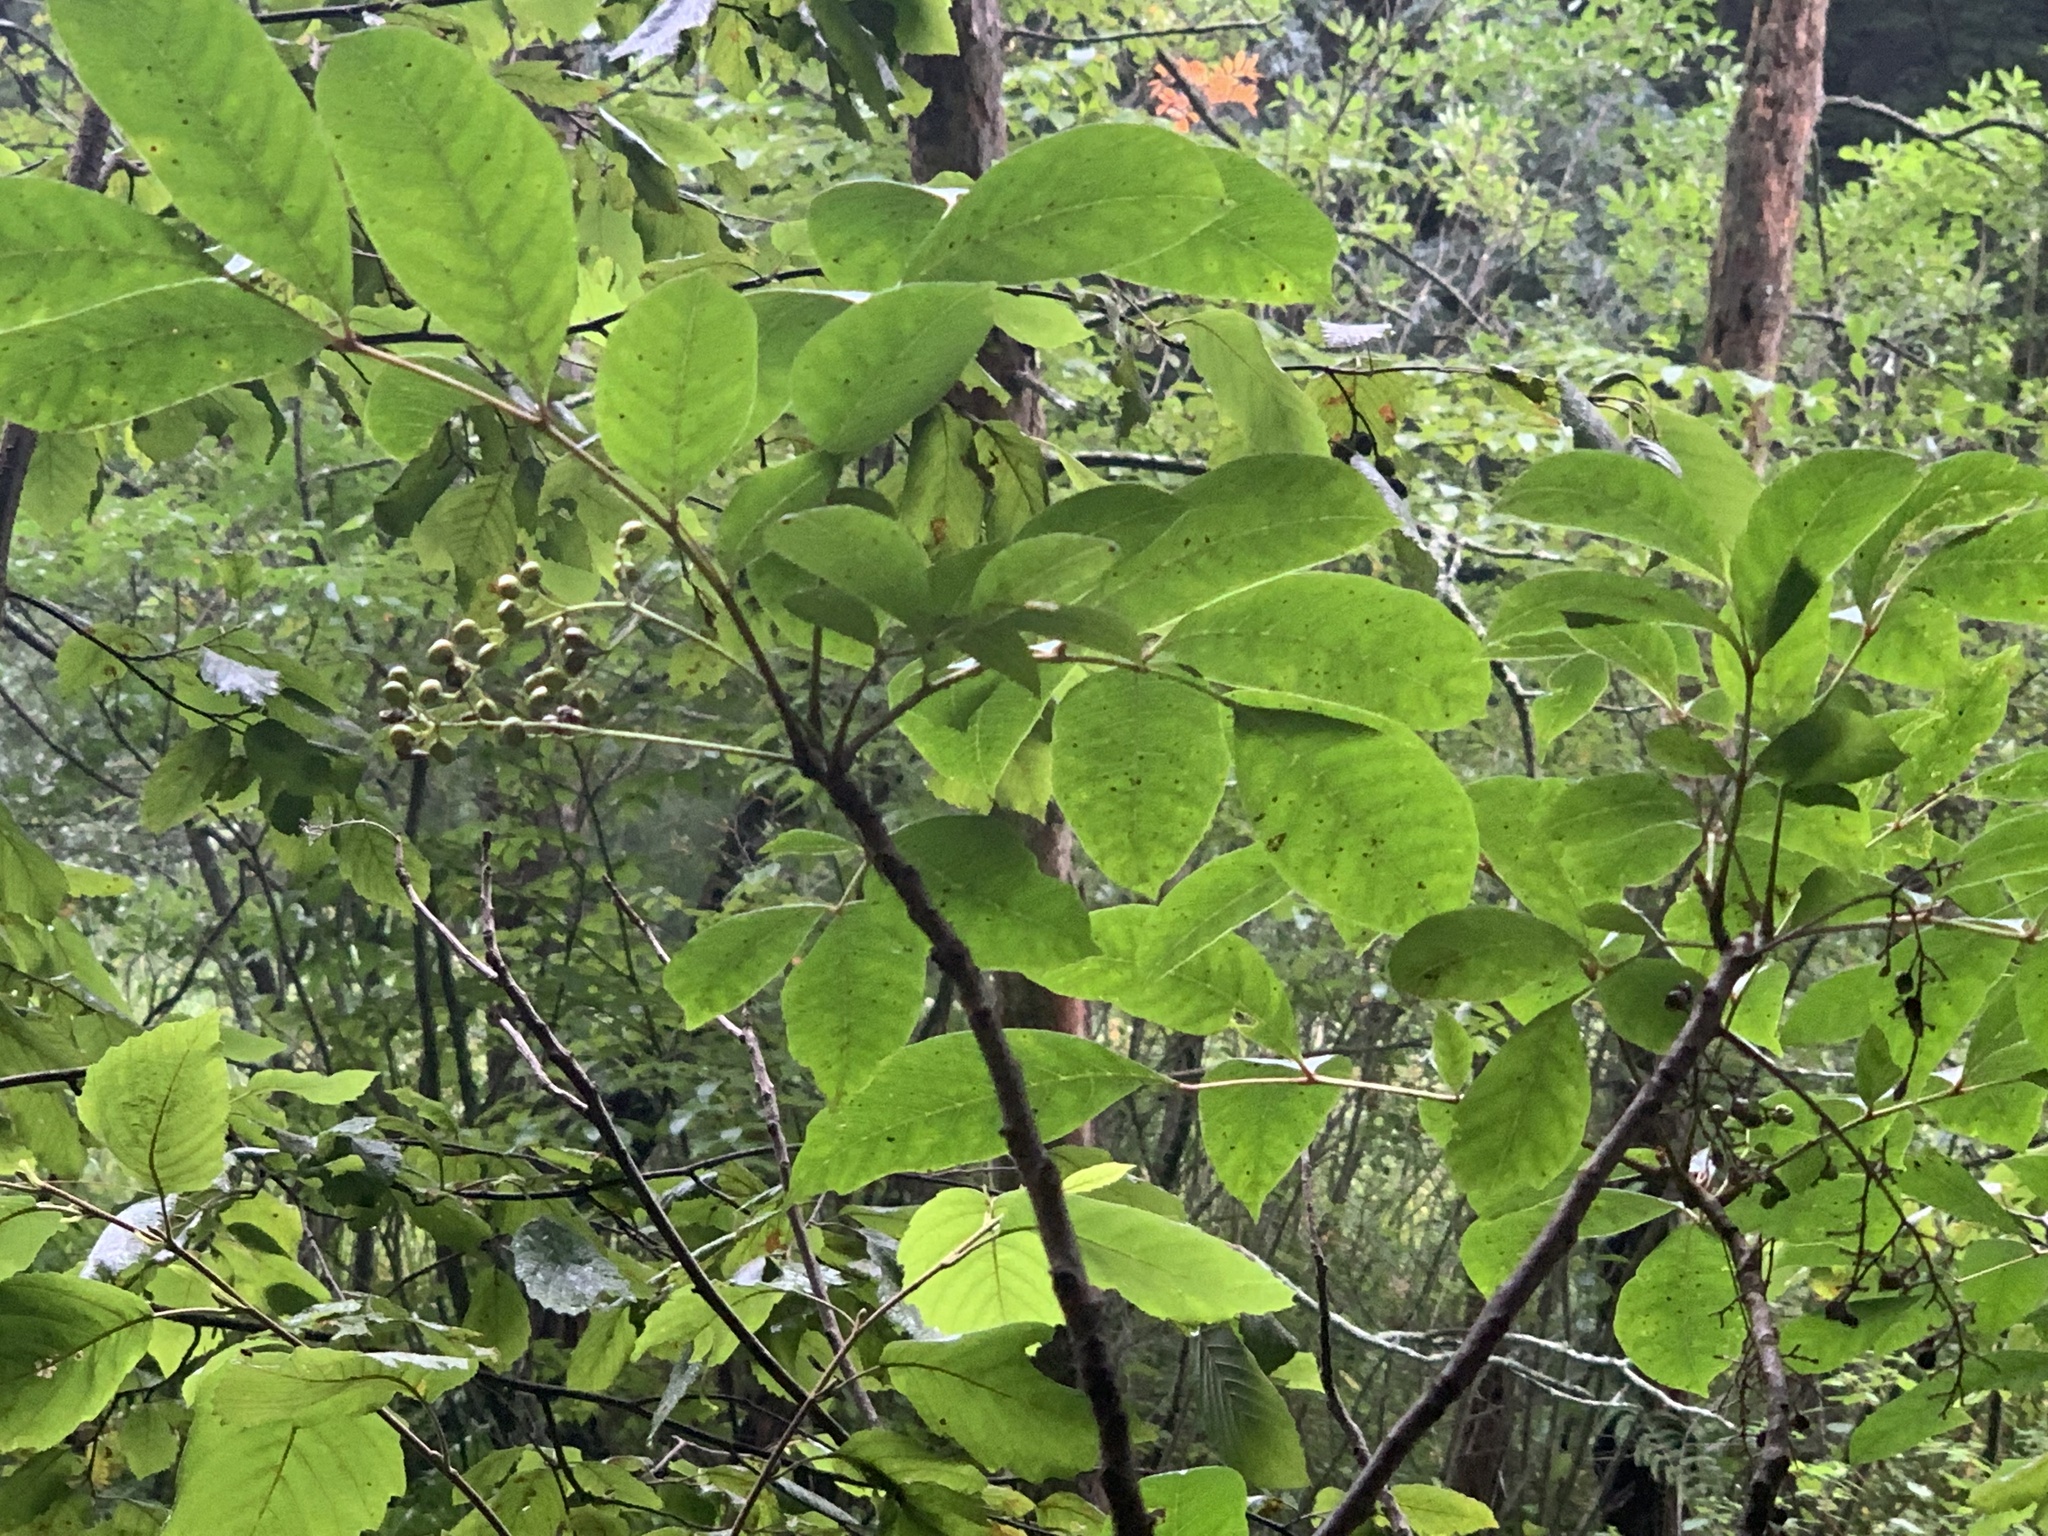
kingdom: Plantae
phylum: Tracheophyta
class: Magnoliopsida
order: Sapindales
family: Anacardiaceae
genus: Toxicodendron
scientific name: Toxicodendron vernix
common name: Poison sumac
